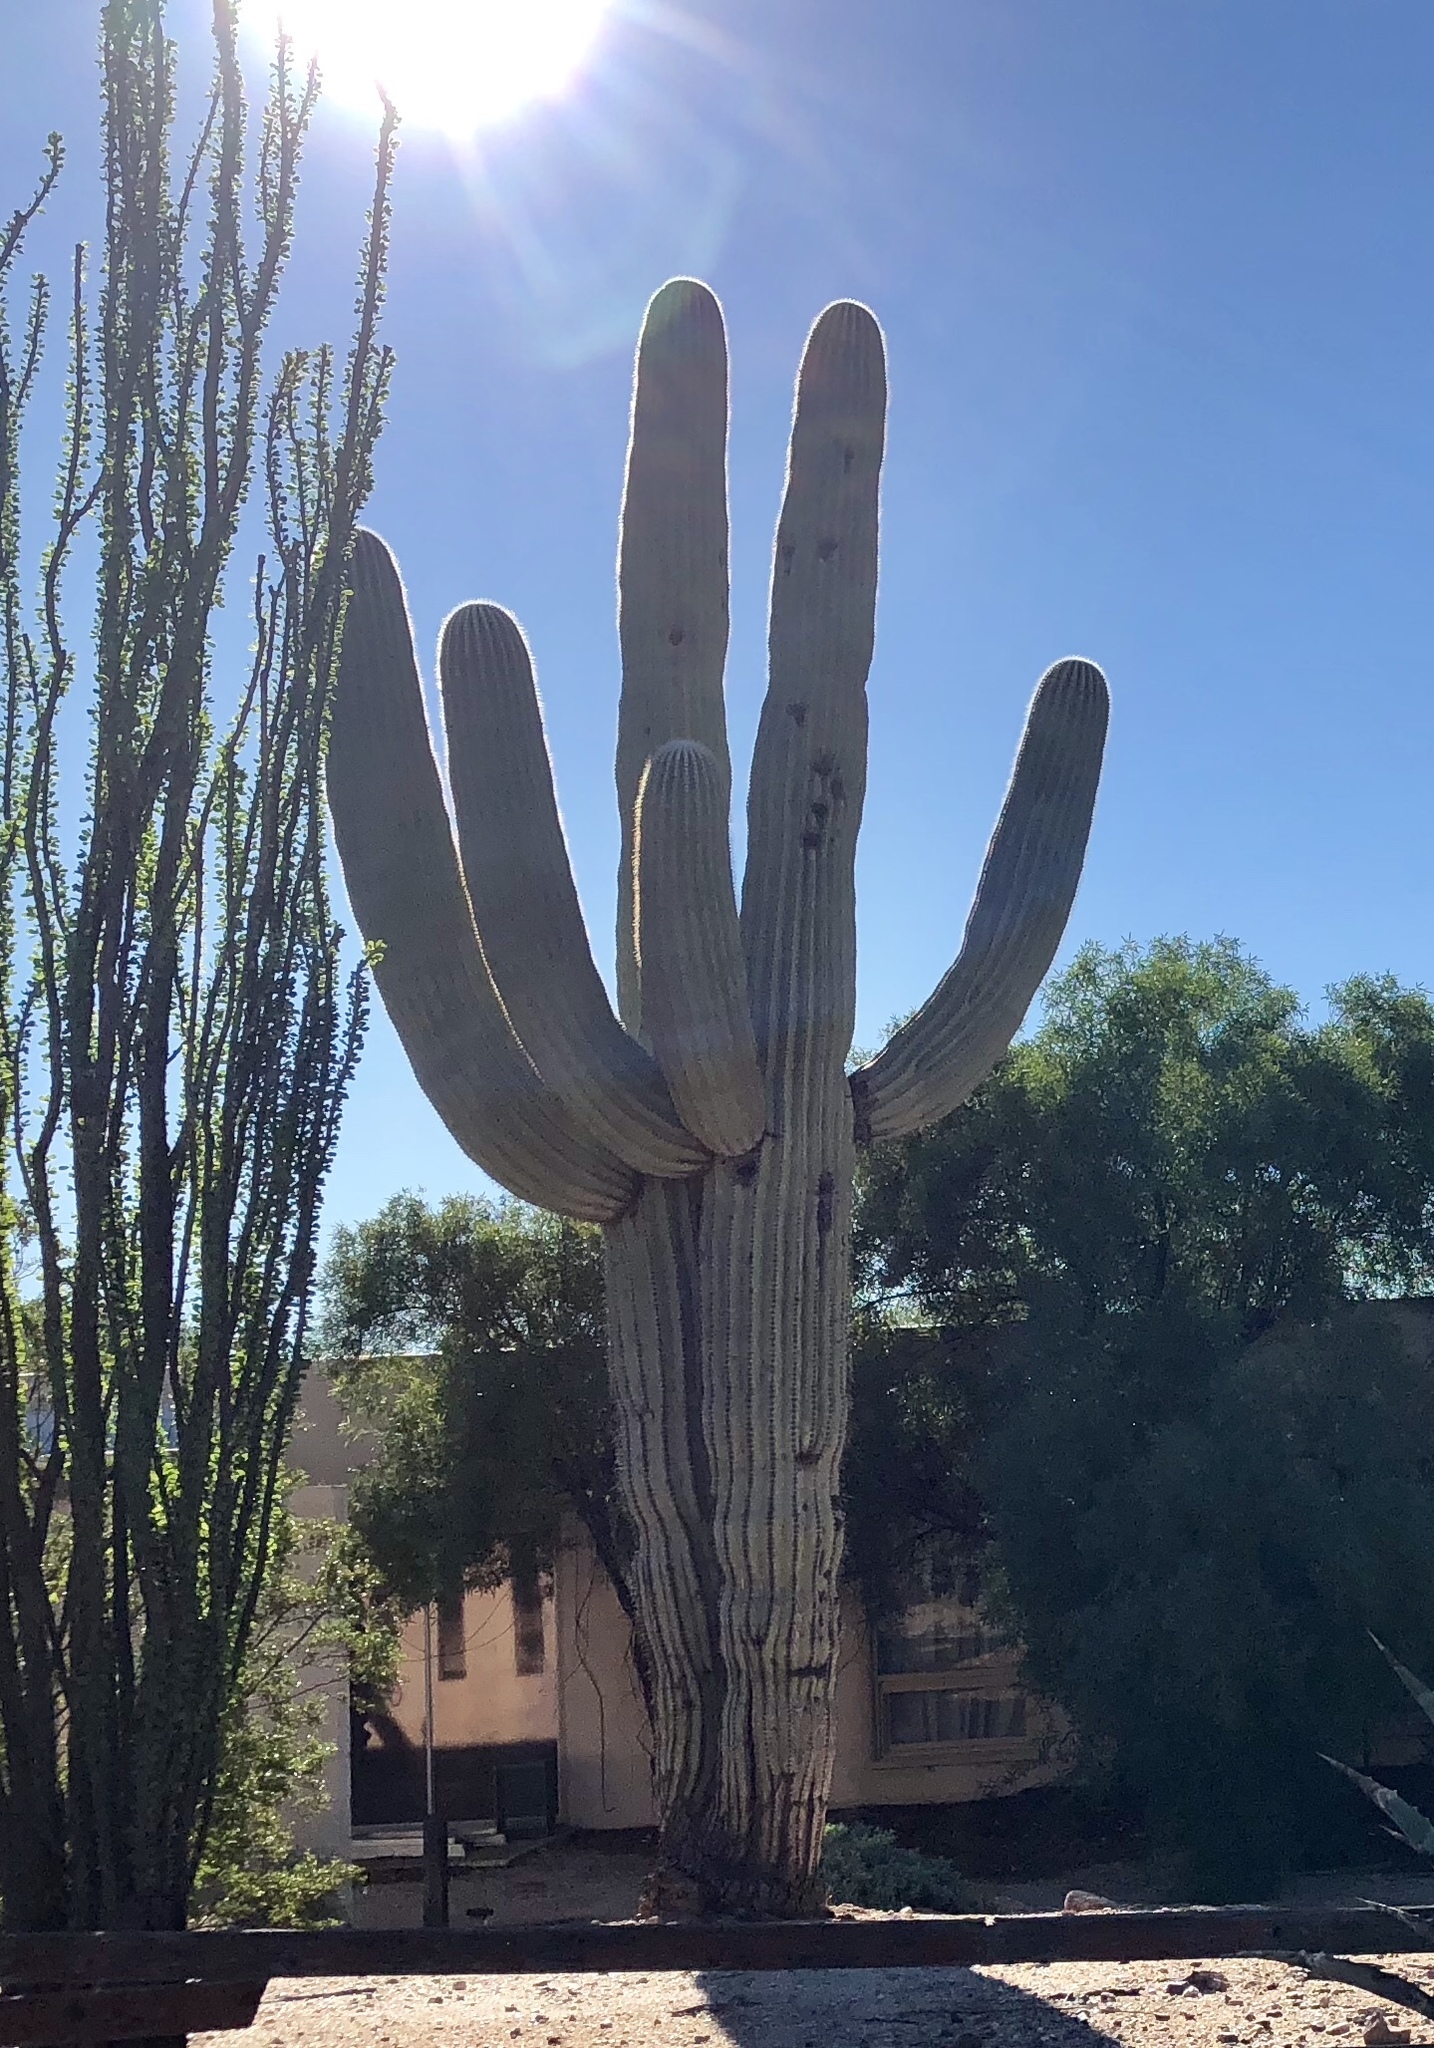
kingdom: Plantae
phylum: Tracheophyta
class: Magnoliopsida
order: Caryophyllales
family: Cactaceae
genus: Carnegiea
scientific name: Carnegiea gigantea
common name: Saguaro
